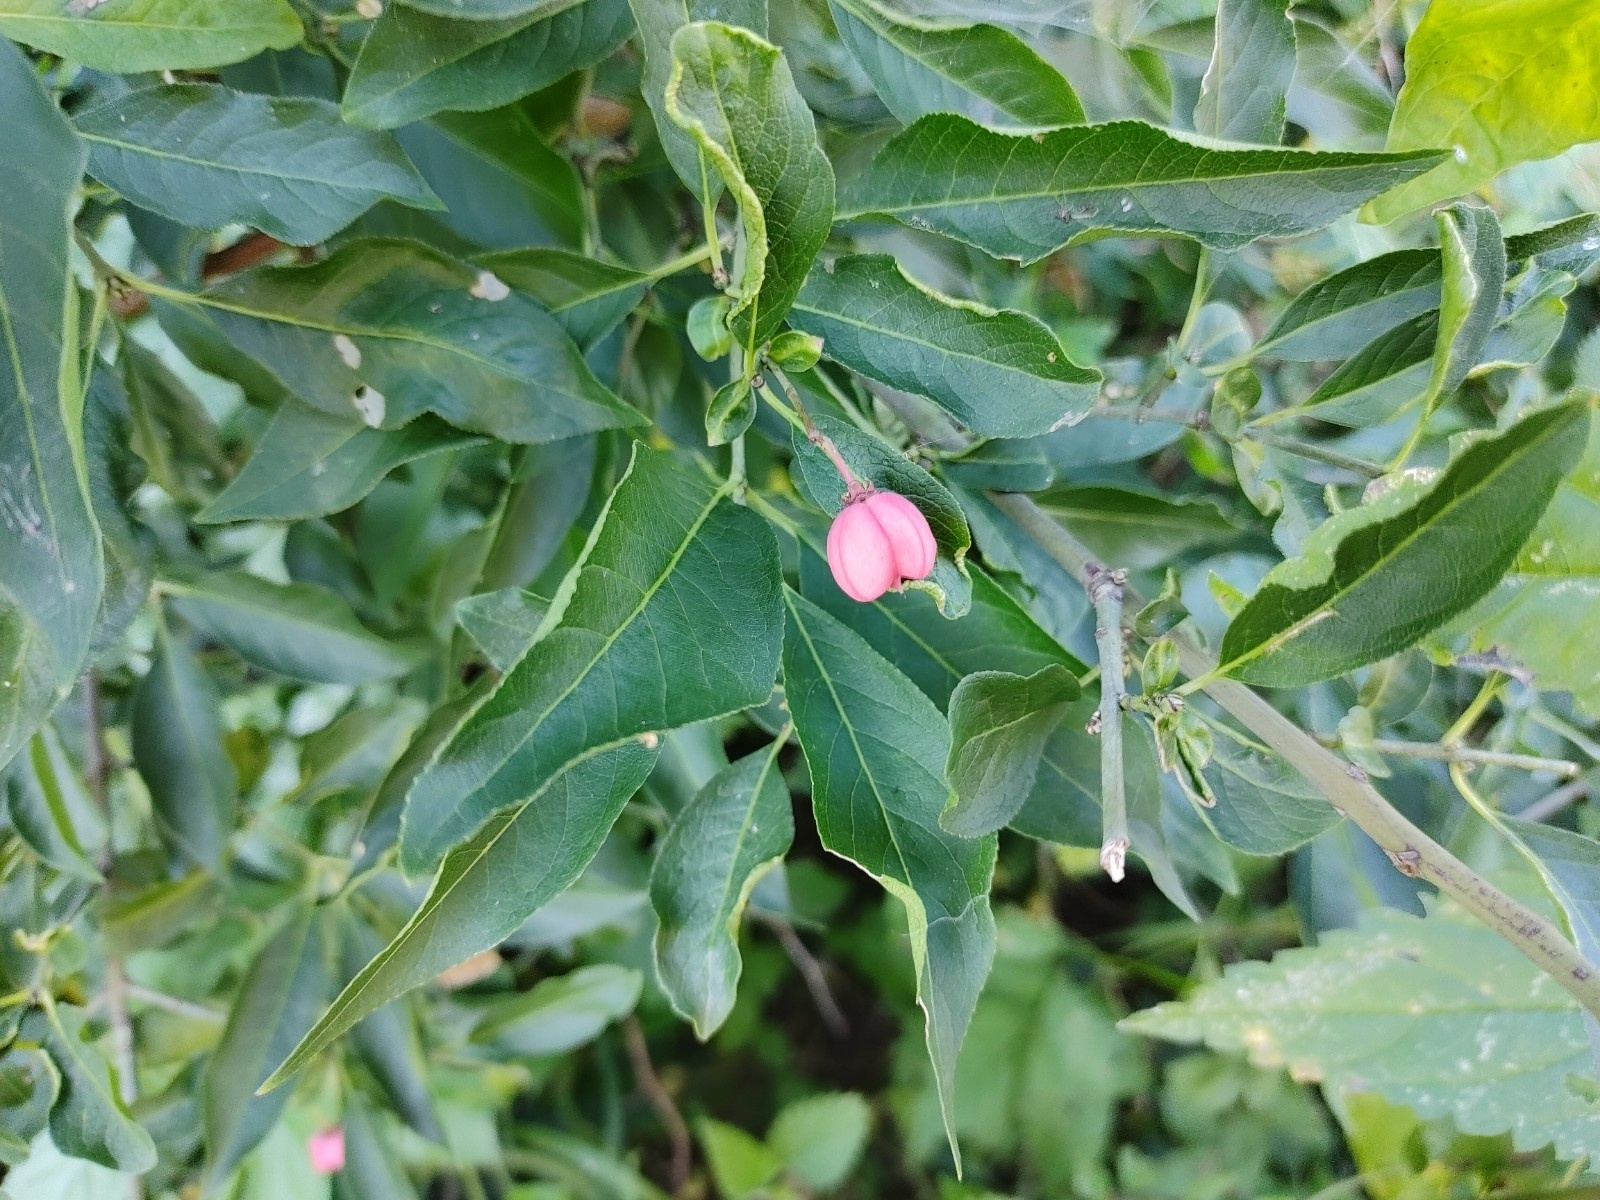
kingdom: Plantae
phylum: Tracheophyta
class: Magnoliopsida
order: Celastrales
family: Celastraceae
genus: Euonymus
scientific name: Euonymus europaeus
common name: Spindle
